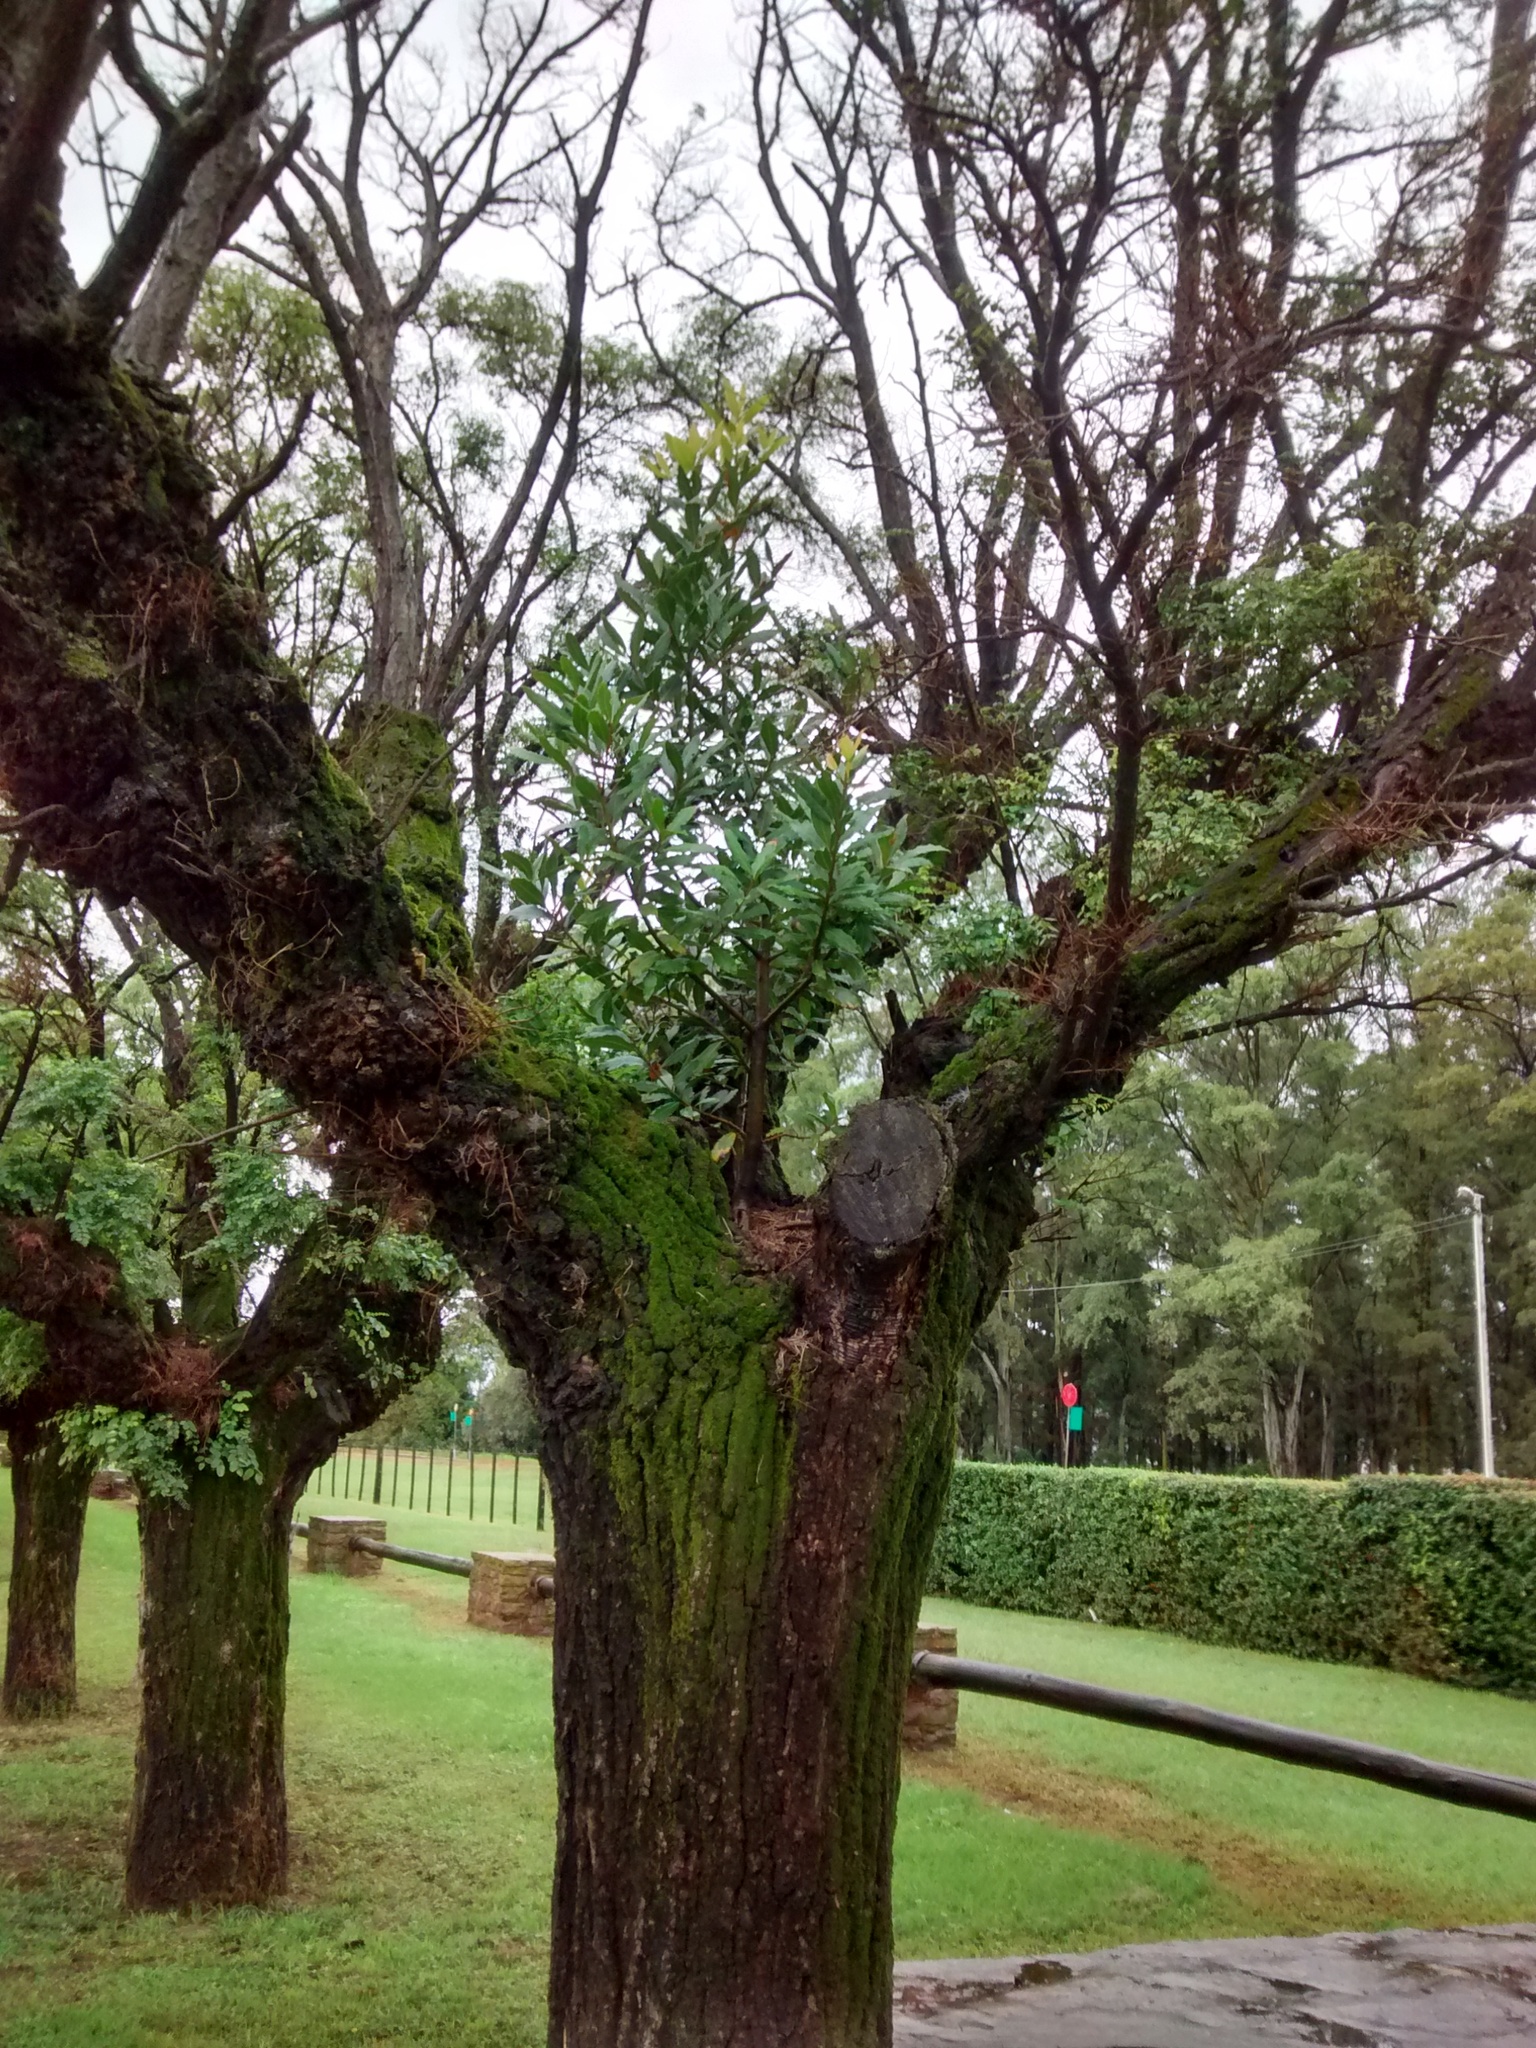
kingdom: Plantae
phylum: Tracheophyta
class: Magnoliopsida
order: Laurales
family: Lauraceae
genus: Laurus
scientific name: Laurus nobilis
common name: Bay
